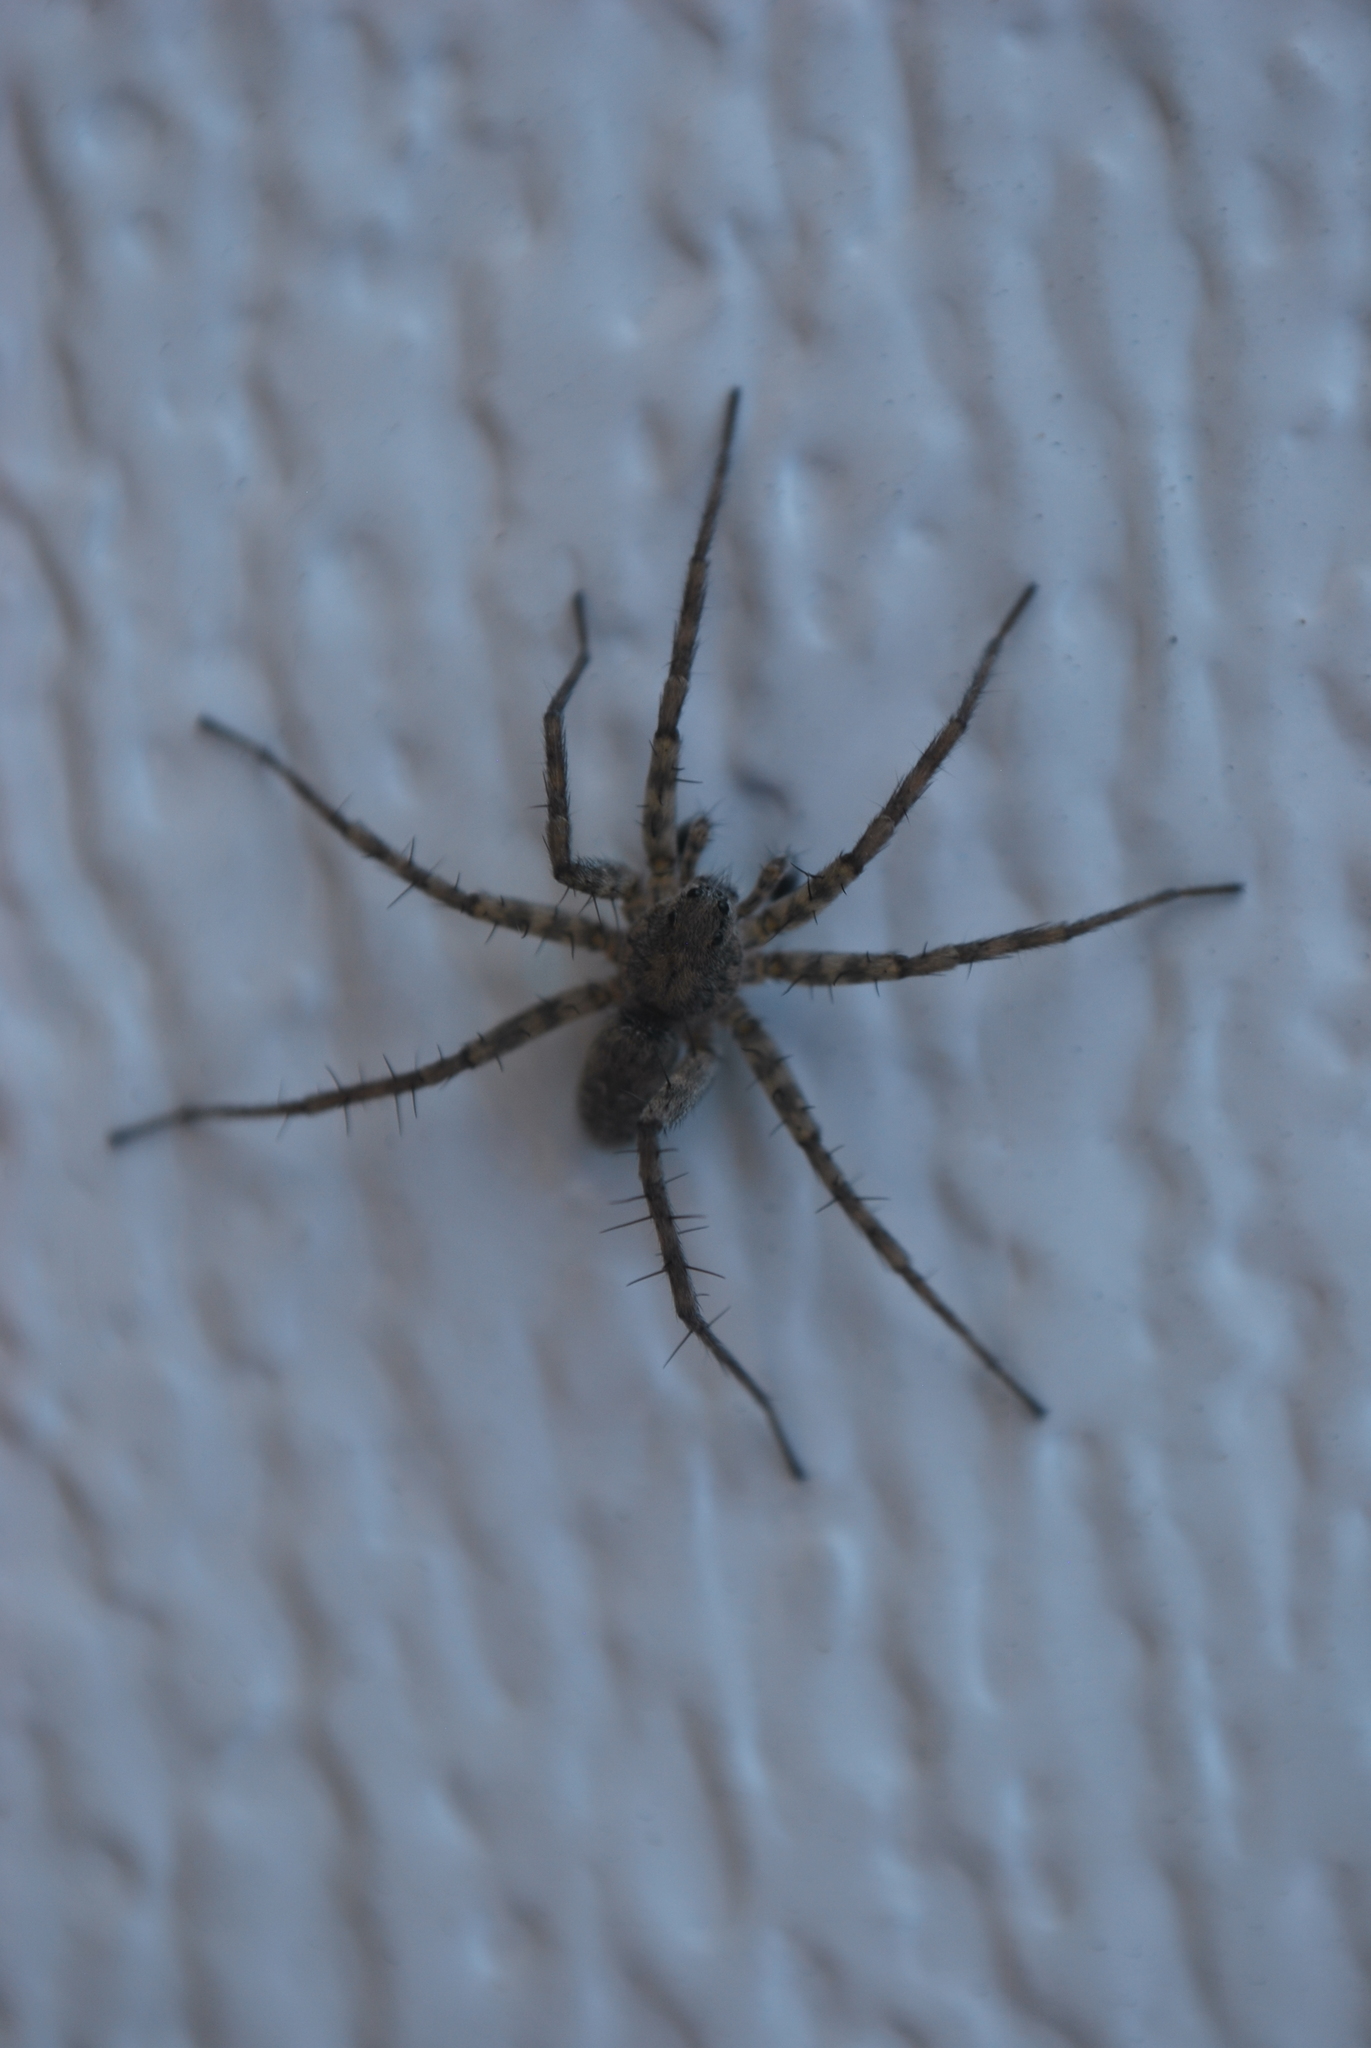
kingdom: Animalia
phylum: Arthropoda
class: Arachnida
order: Araneae
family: Lycosidae
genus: Pardosa
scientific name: Pardosa milvina
